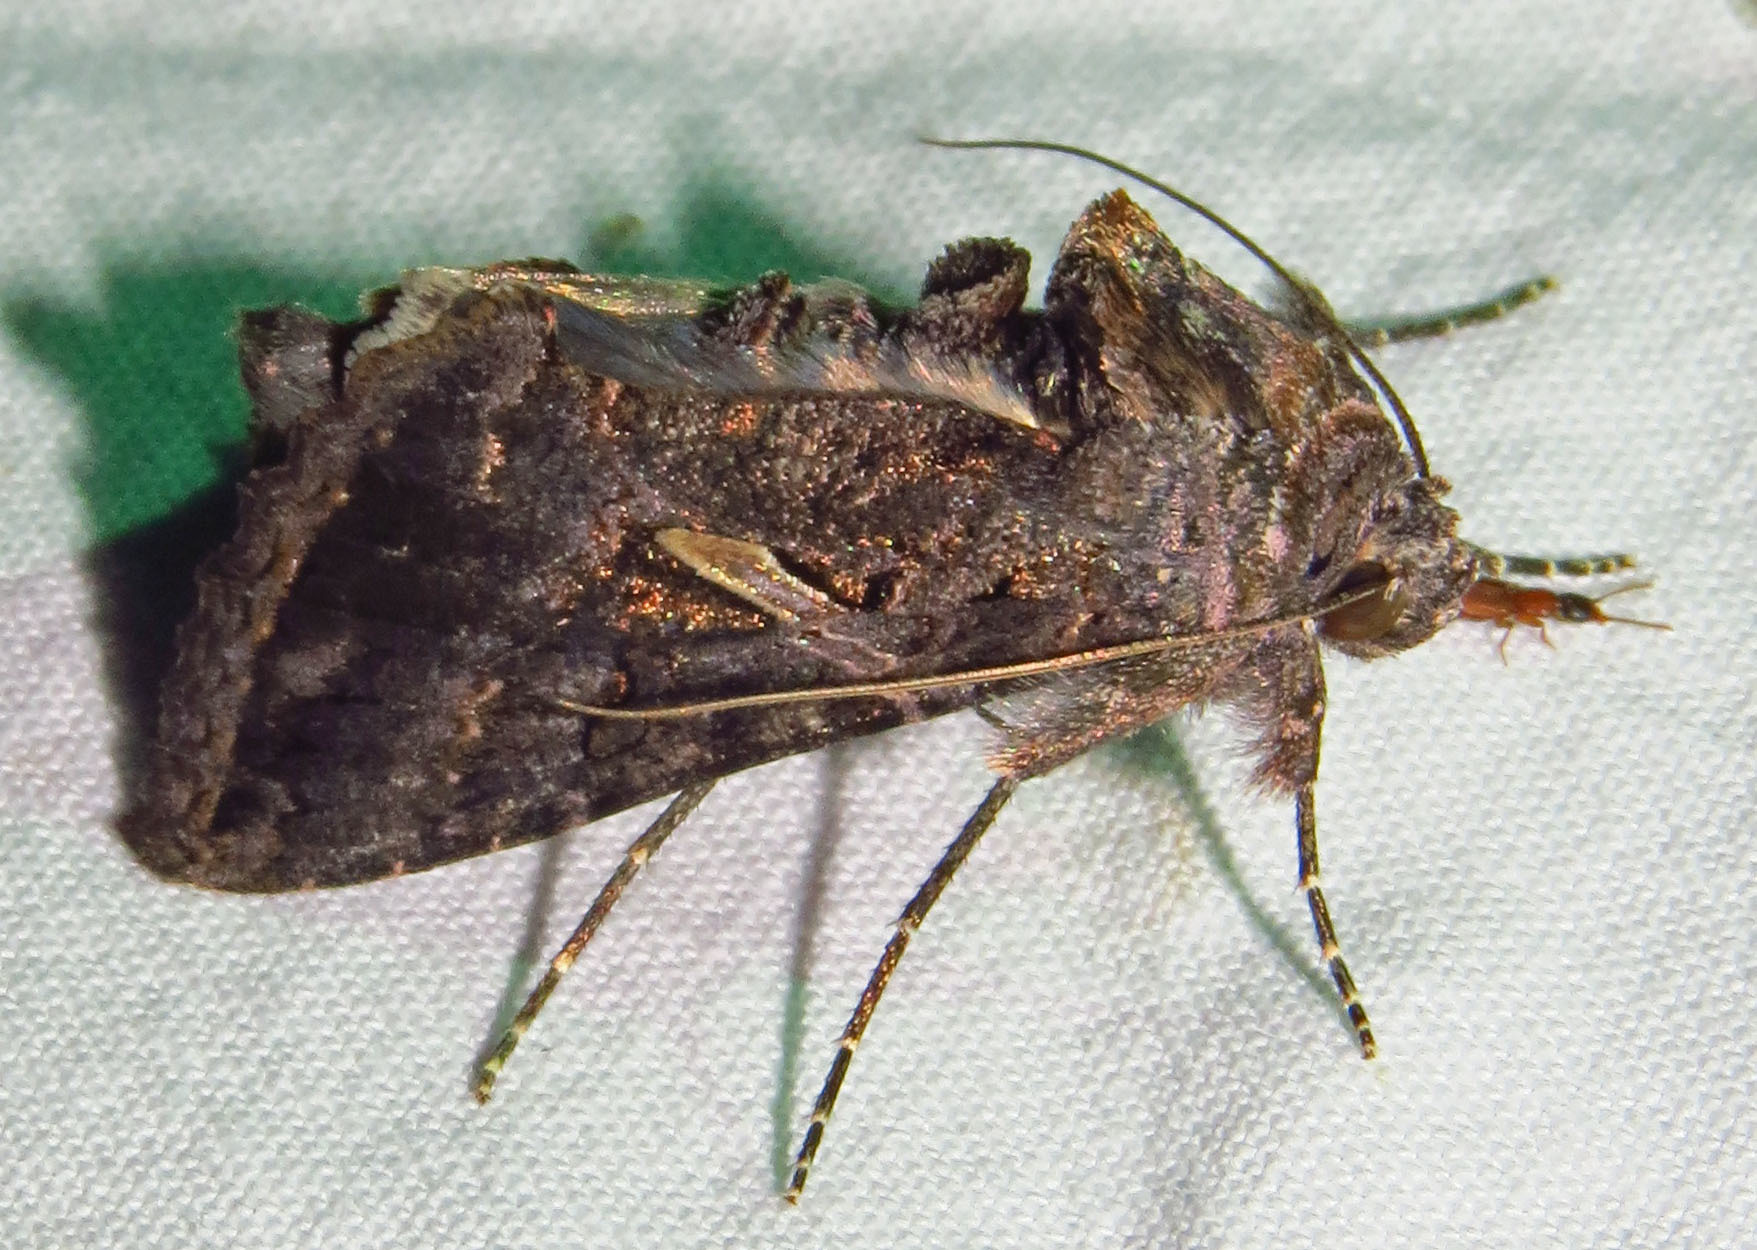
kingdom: Animalia
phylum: Arthropoda
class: Insecta
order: Lepidoptera
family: Noctuidae
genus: Ctenoplusia
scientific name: Ctenoplusia oxygramma
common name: Sharp-stigma looper moth
